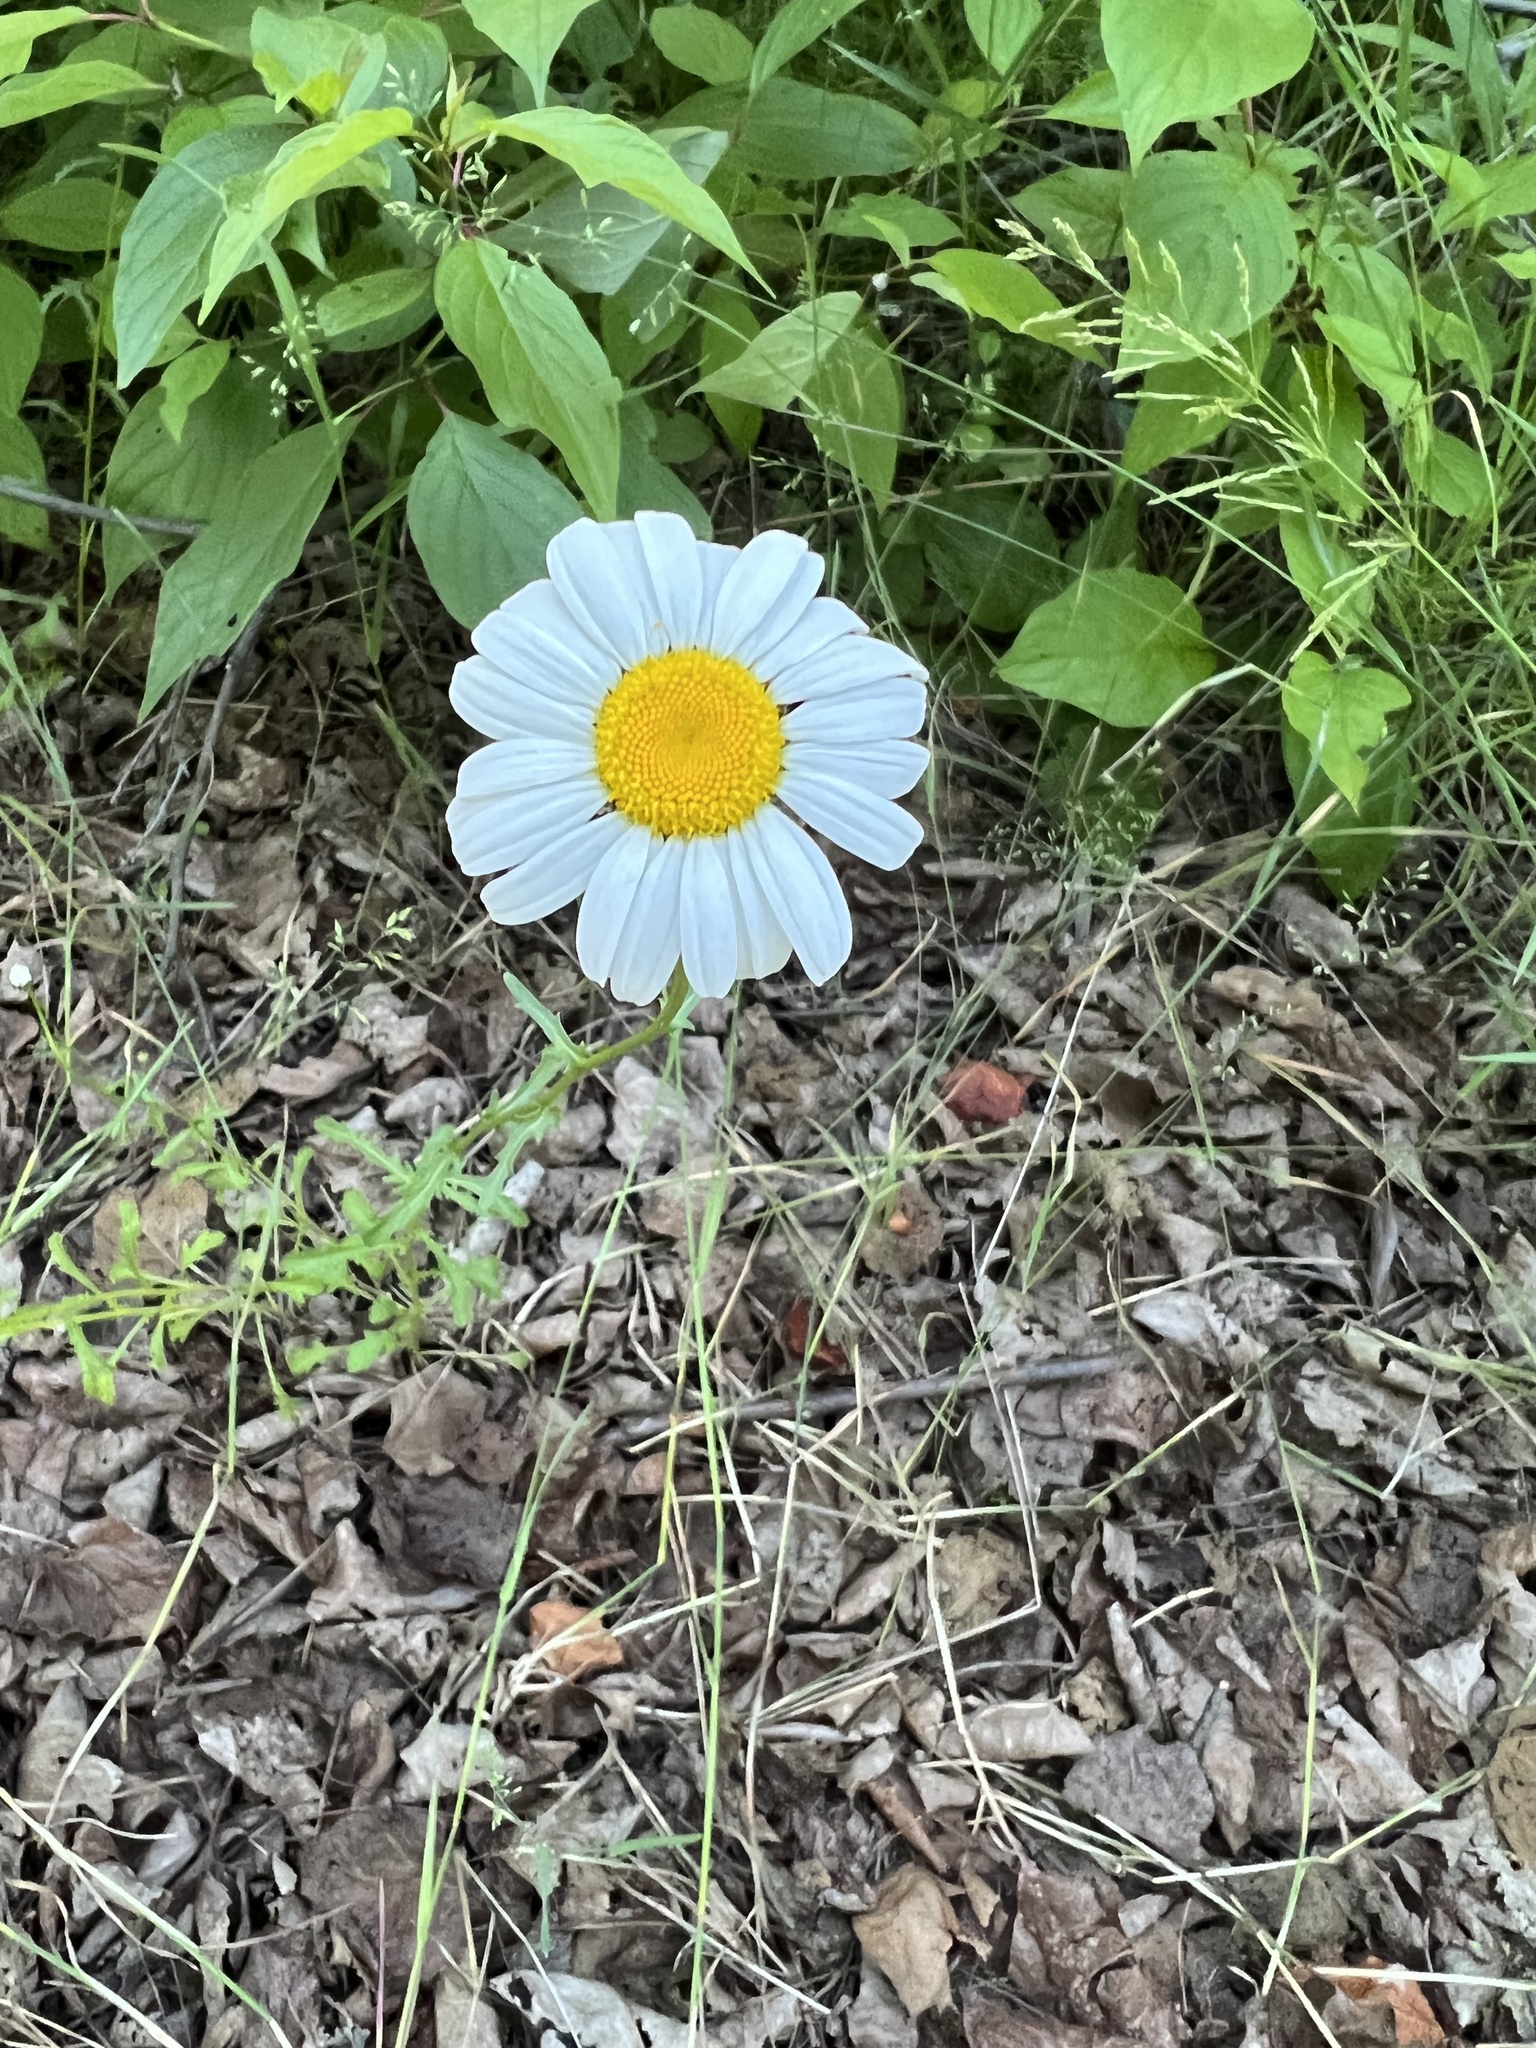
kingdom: Plantae
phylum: Tracheophyta
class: Magnoliopsida
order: Asterales
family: Asteraceae
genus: Leucanthemum
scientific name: Leucanthemum vulgare
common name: Oxeye daisy
